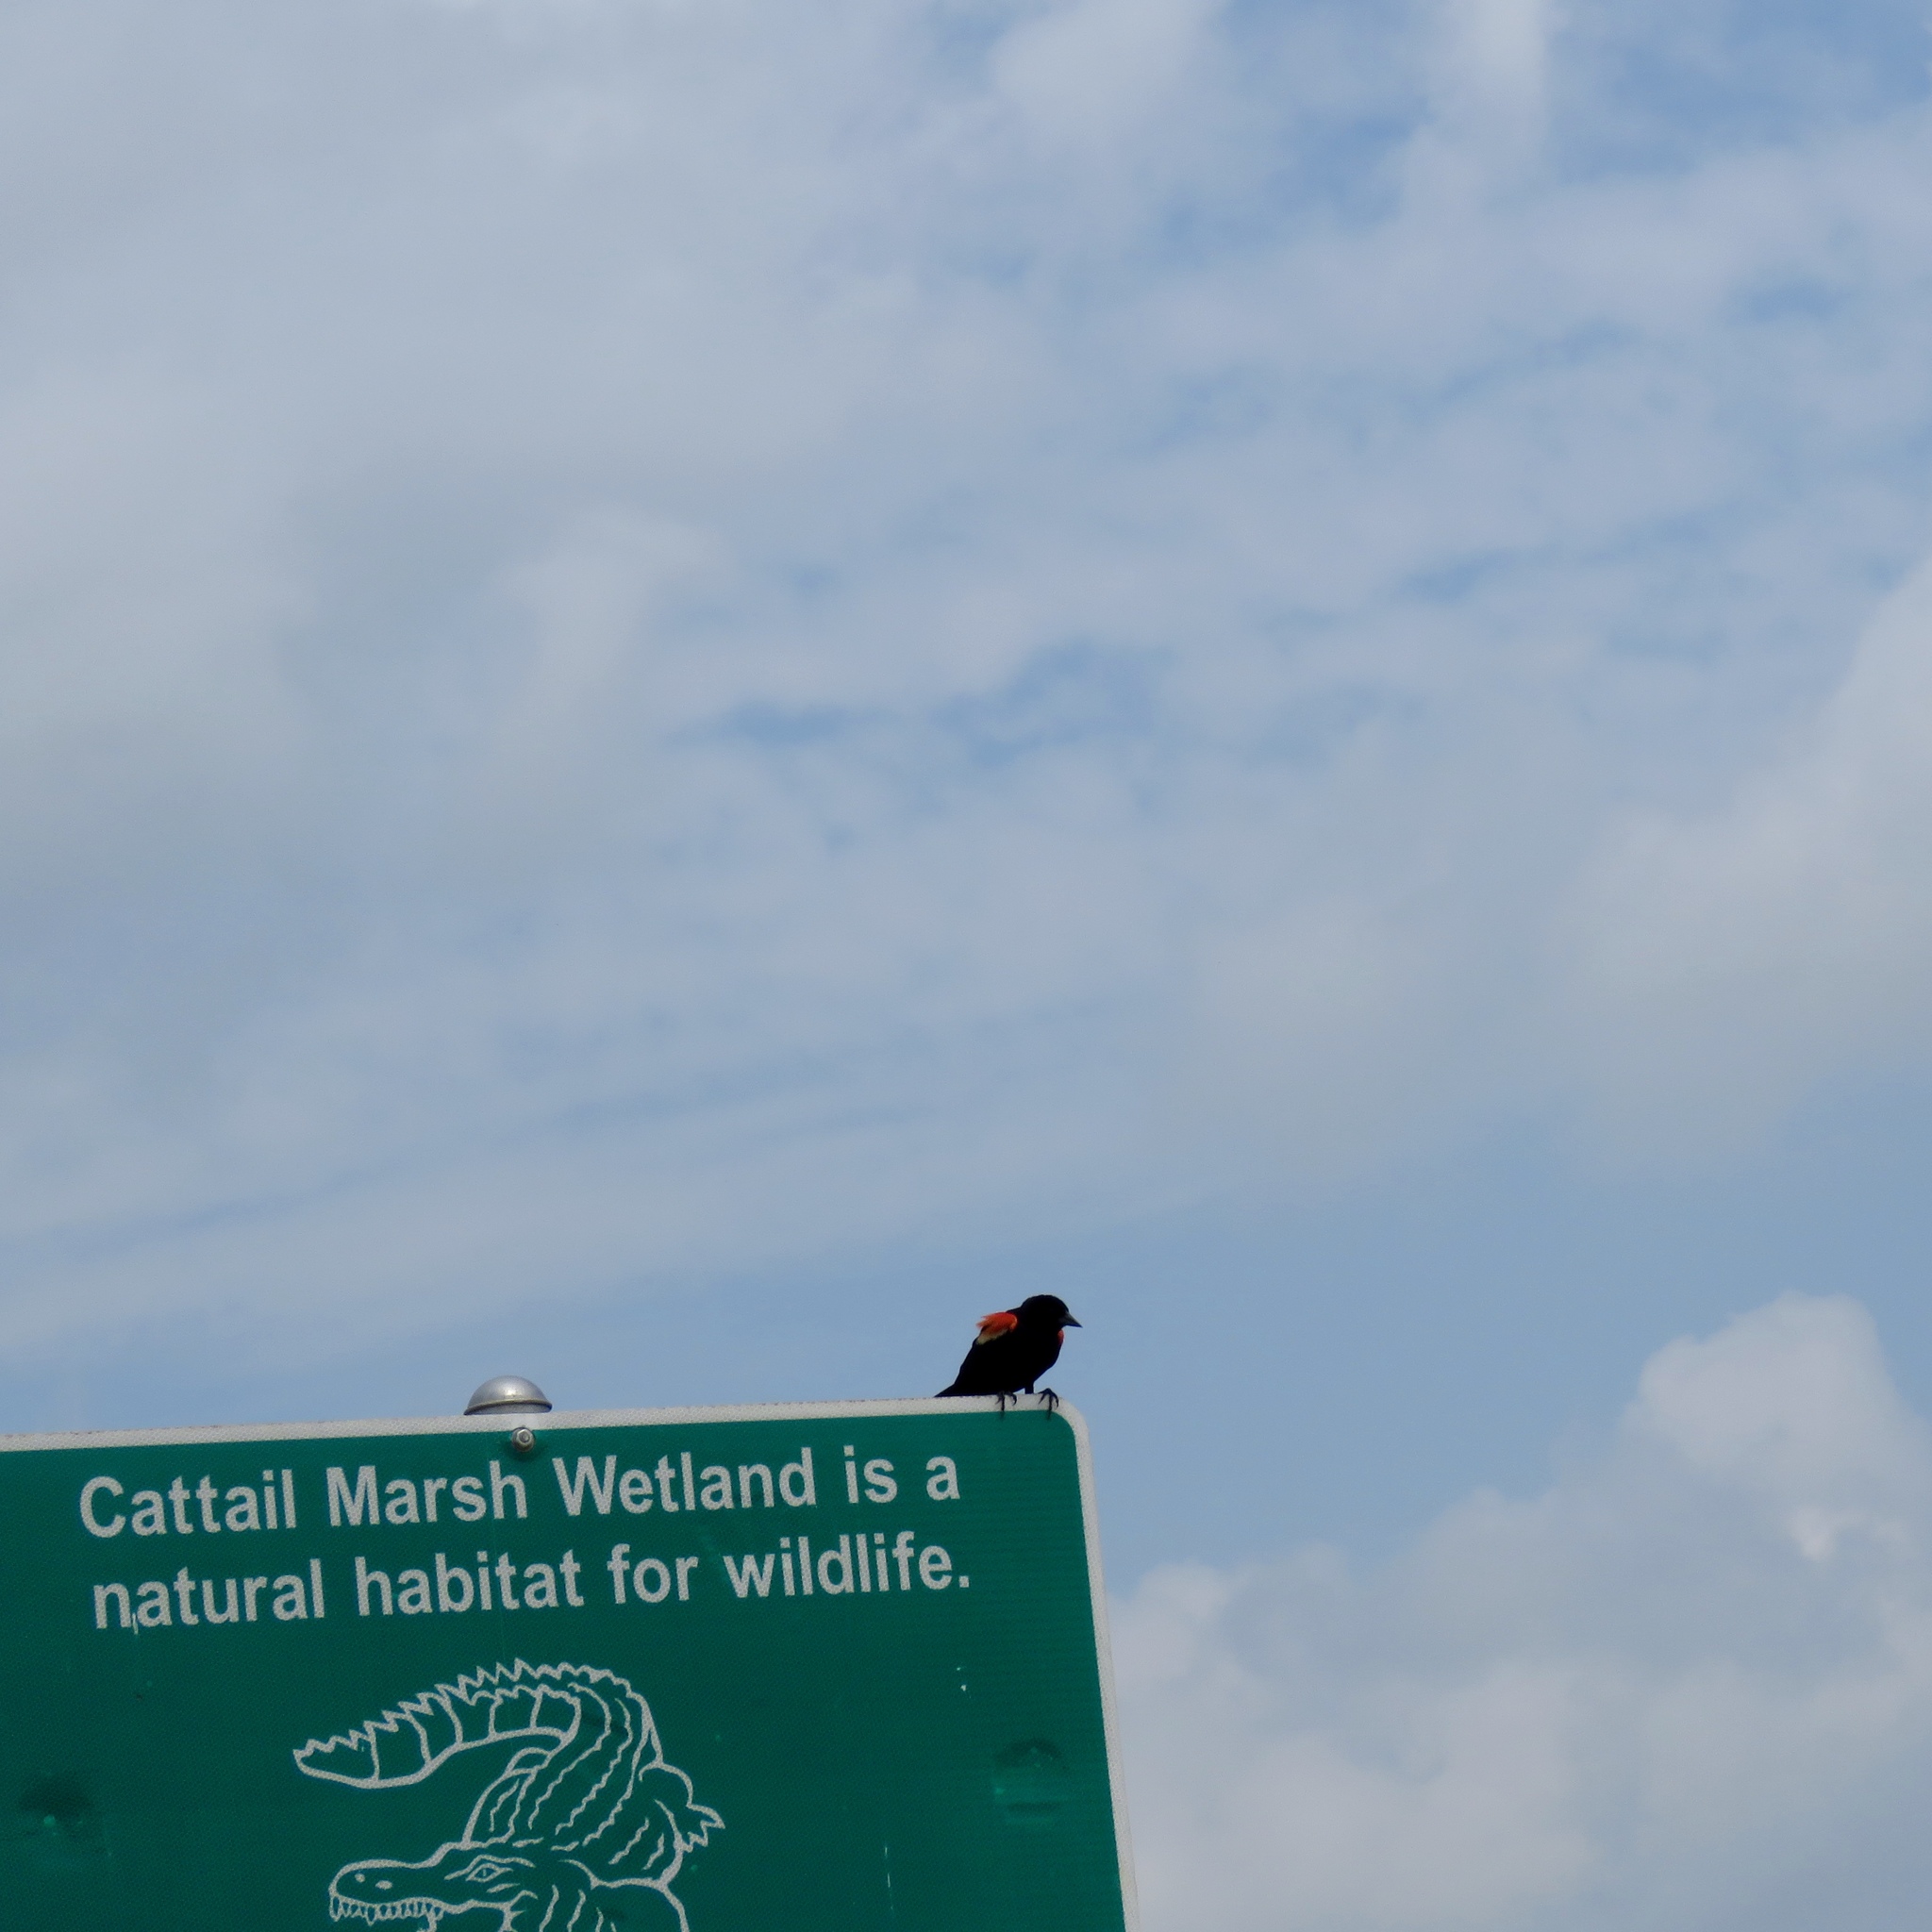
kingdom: Animalia
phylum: Chordata
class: Aves
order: Passeriformes
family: Icteridae
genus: Agelaius
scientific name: Agelaius phoeniceus
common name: Red-winged blackbird
